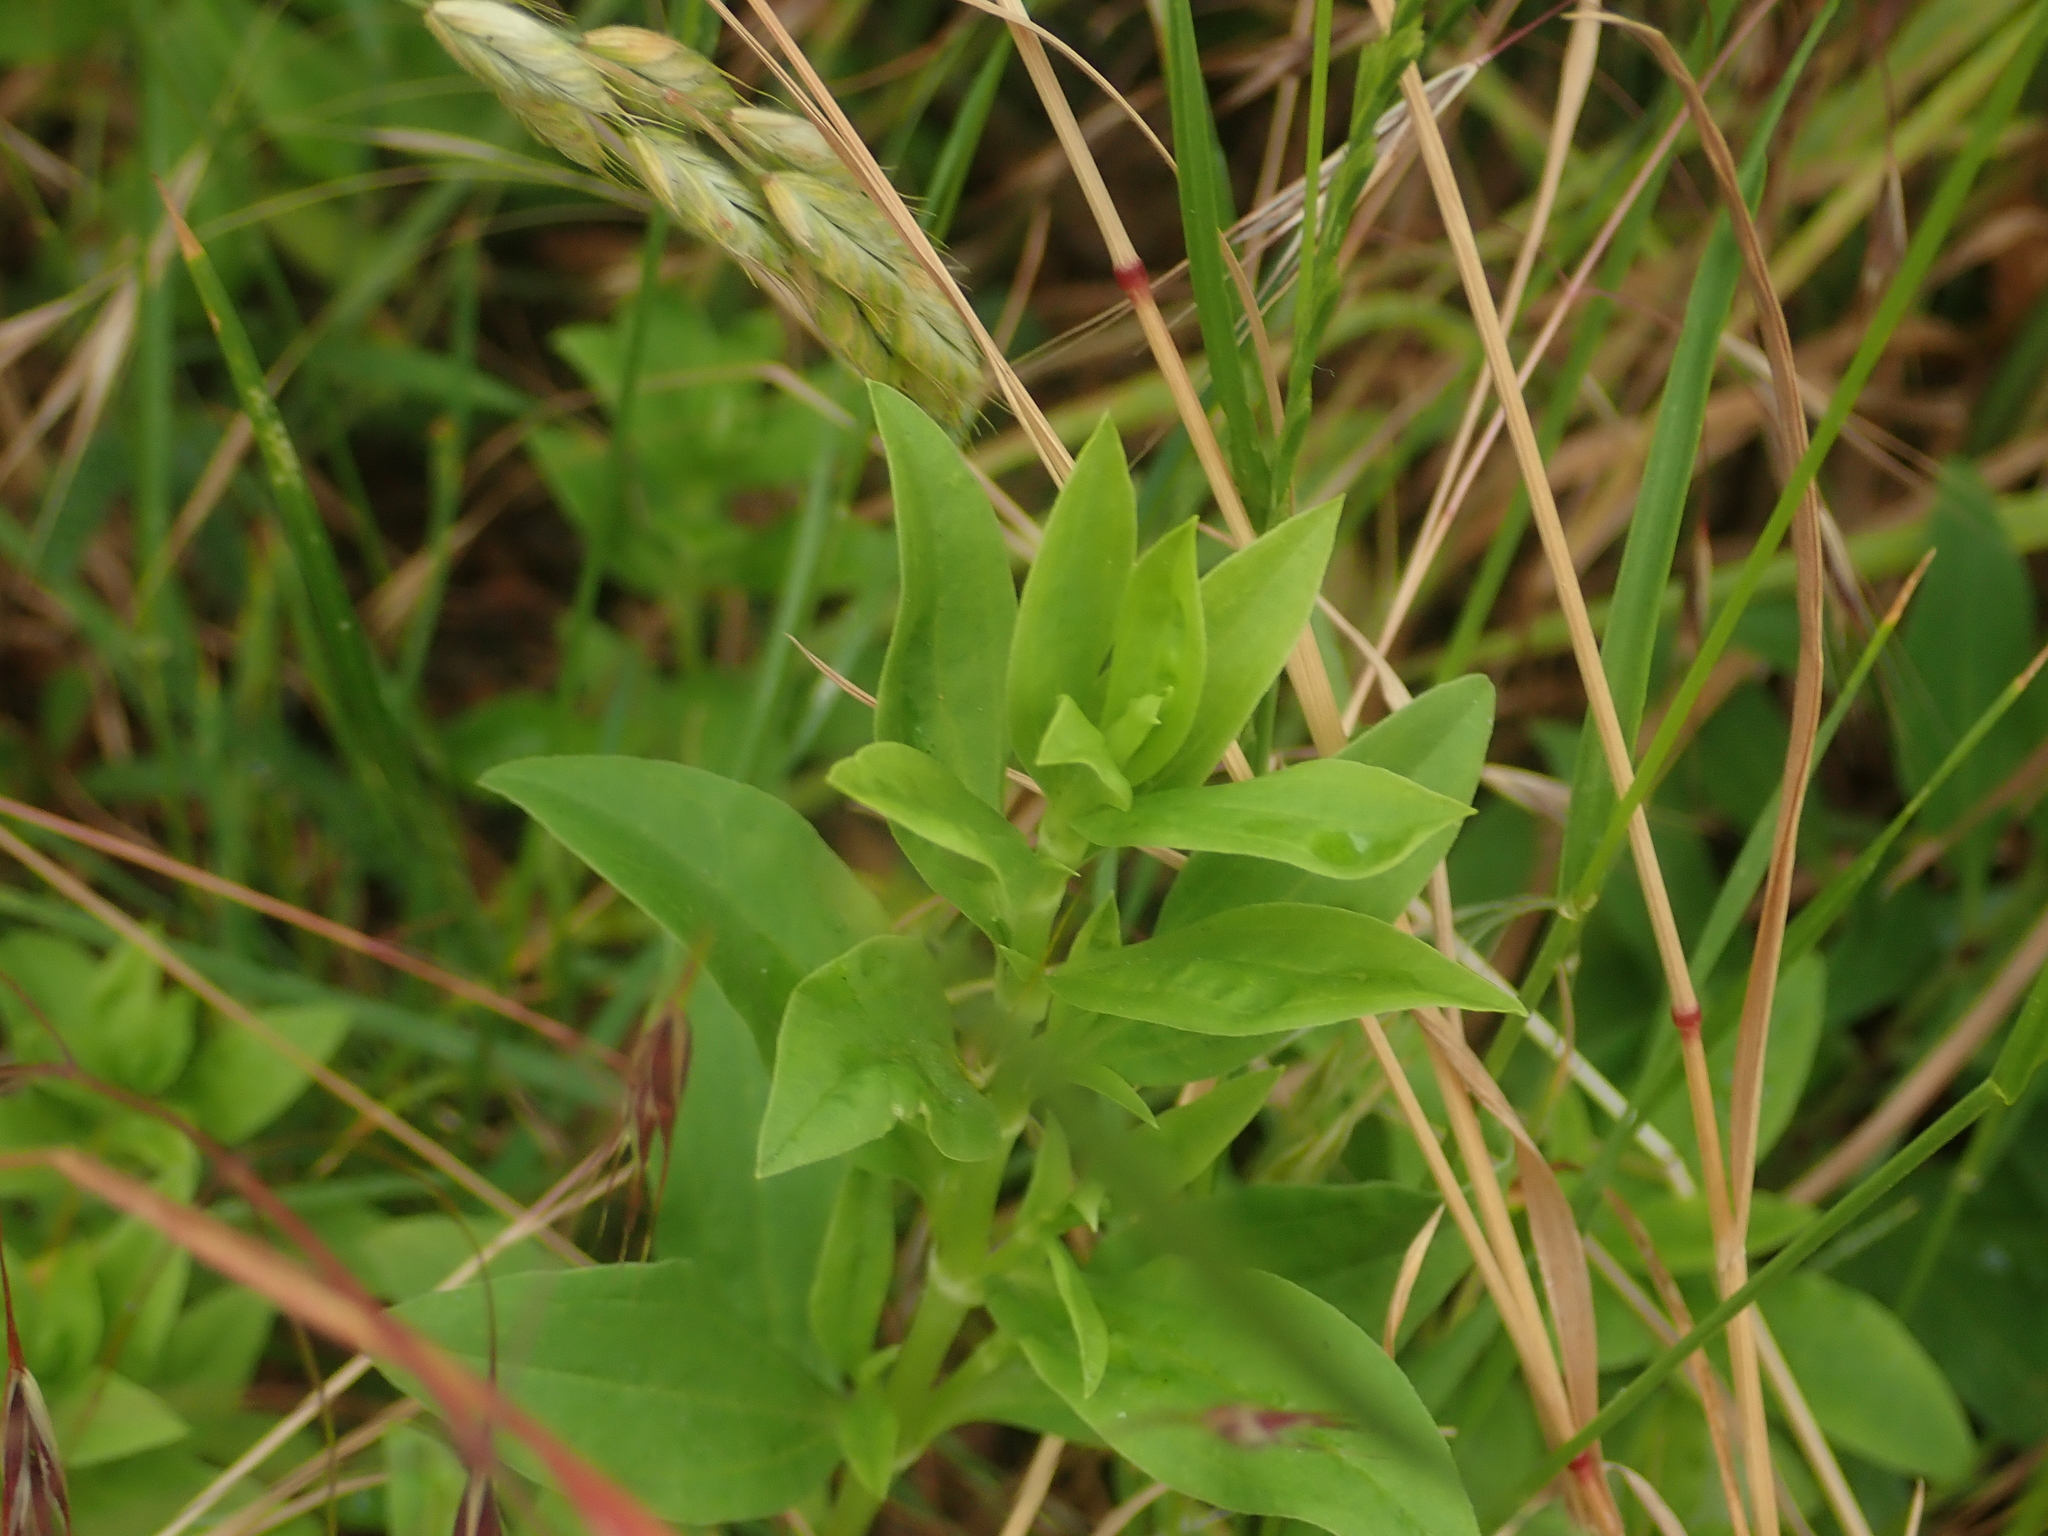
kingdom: Plantae
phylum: Tracheophyta
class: Magnoliopsida
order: Caryophyllales
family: Caryophyllaceae
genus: Saponaria
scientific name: Saponaria officinalis
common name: Soapwort
